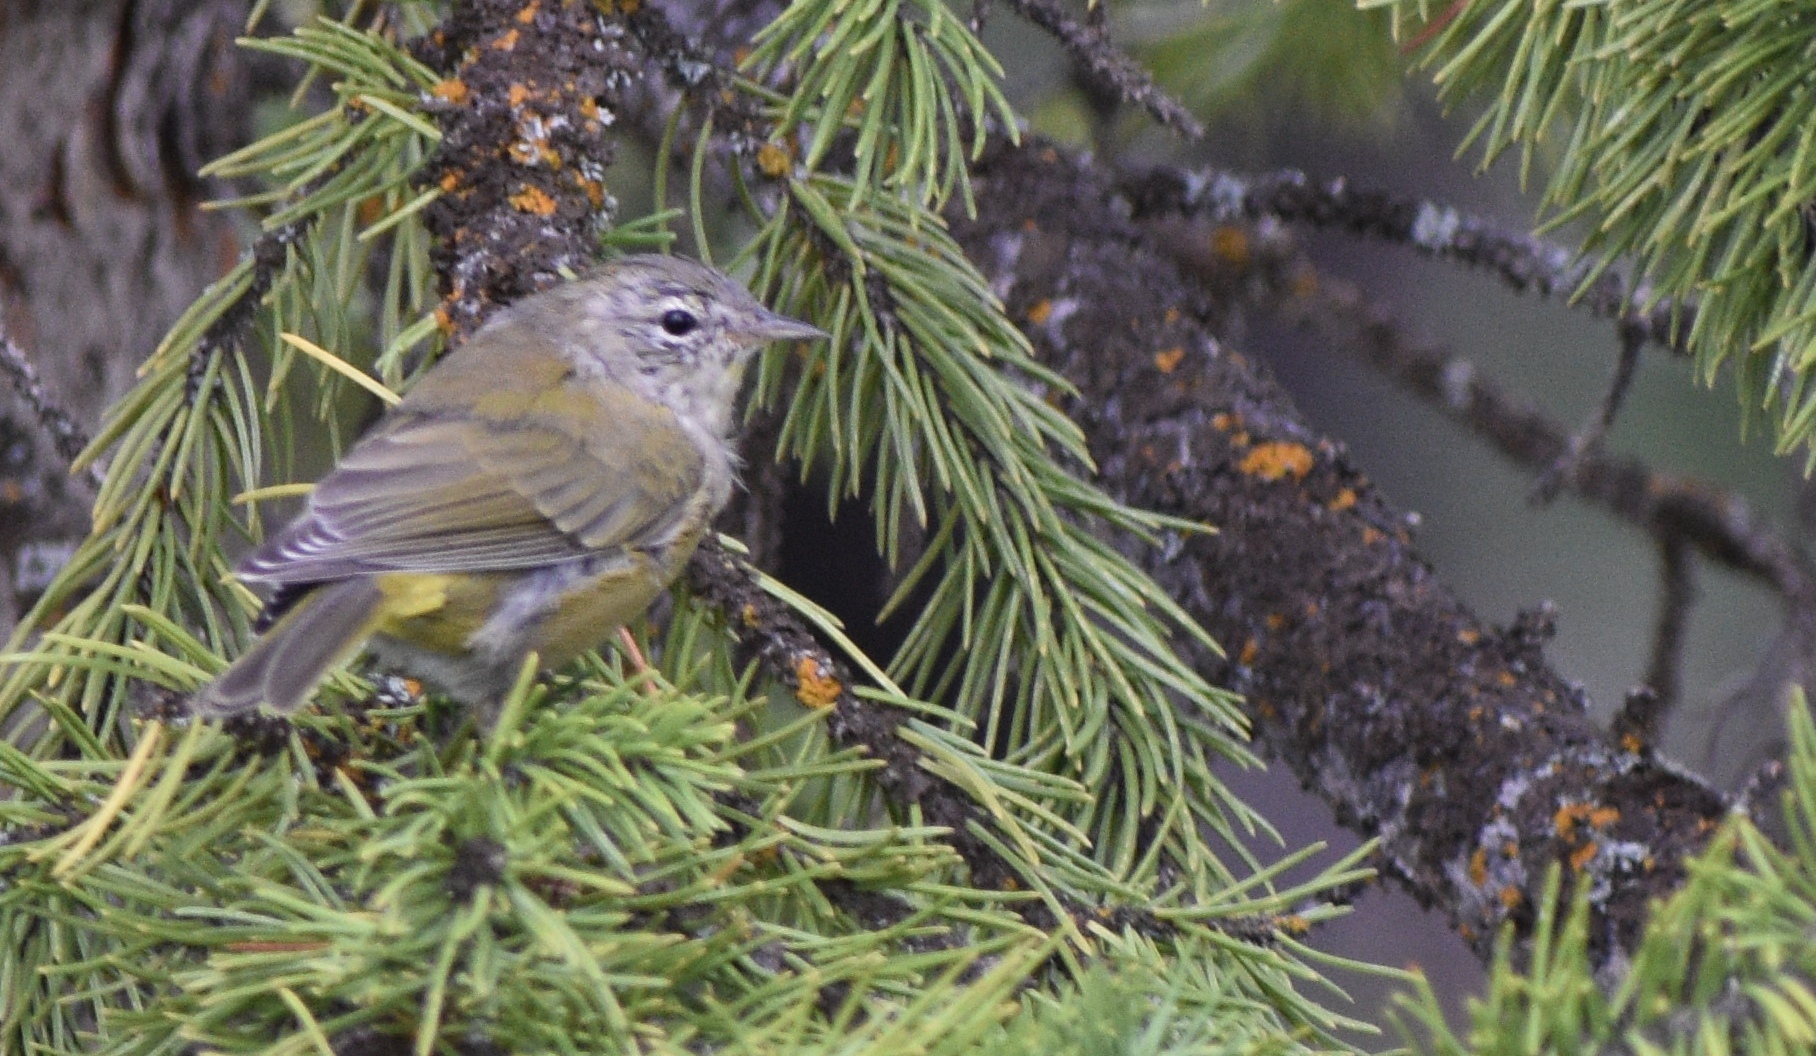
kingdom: Animalia
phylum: Chordata
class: Aves
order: Passeriformes
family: Parulidae
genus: Leiothlypis
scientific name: Leiothlypis celata
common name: Orange-crowned warbler
